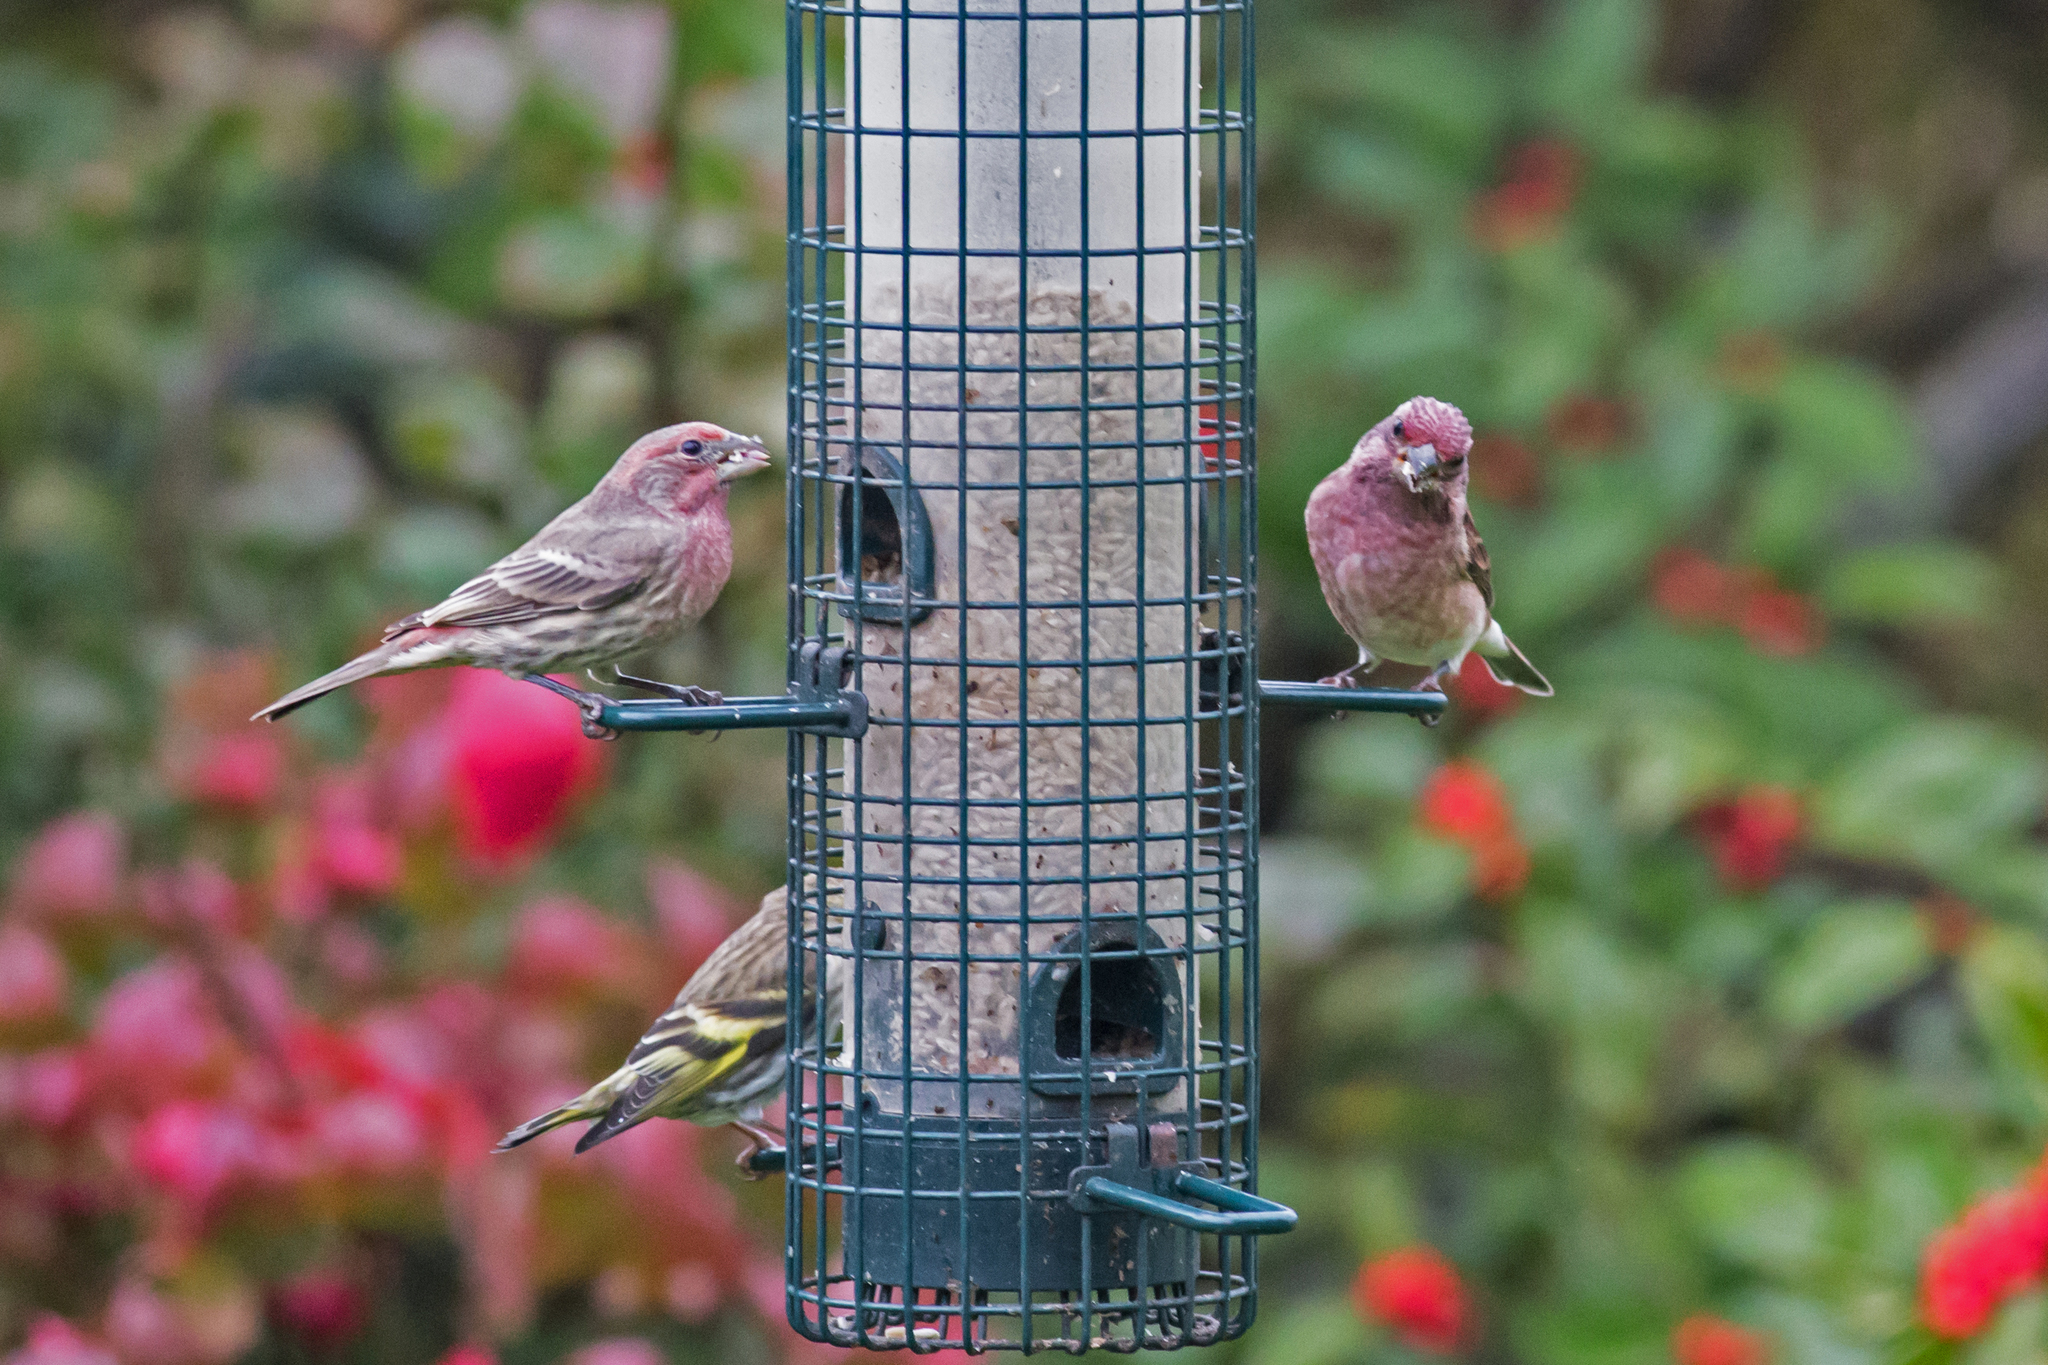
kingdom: Animalia
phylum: Chordata
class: Aves
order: Passeriformes
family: Fringillidae
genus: Haemorhous
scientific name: Haemorhous mexicanus
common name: House finch
